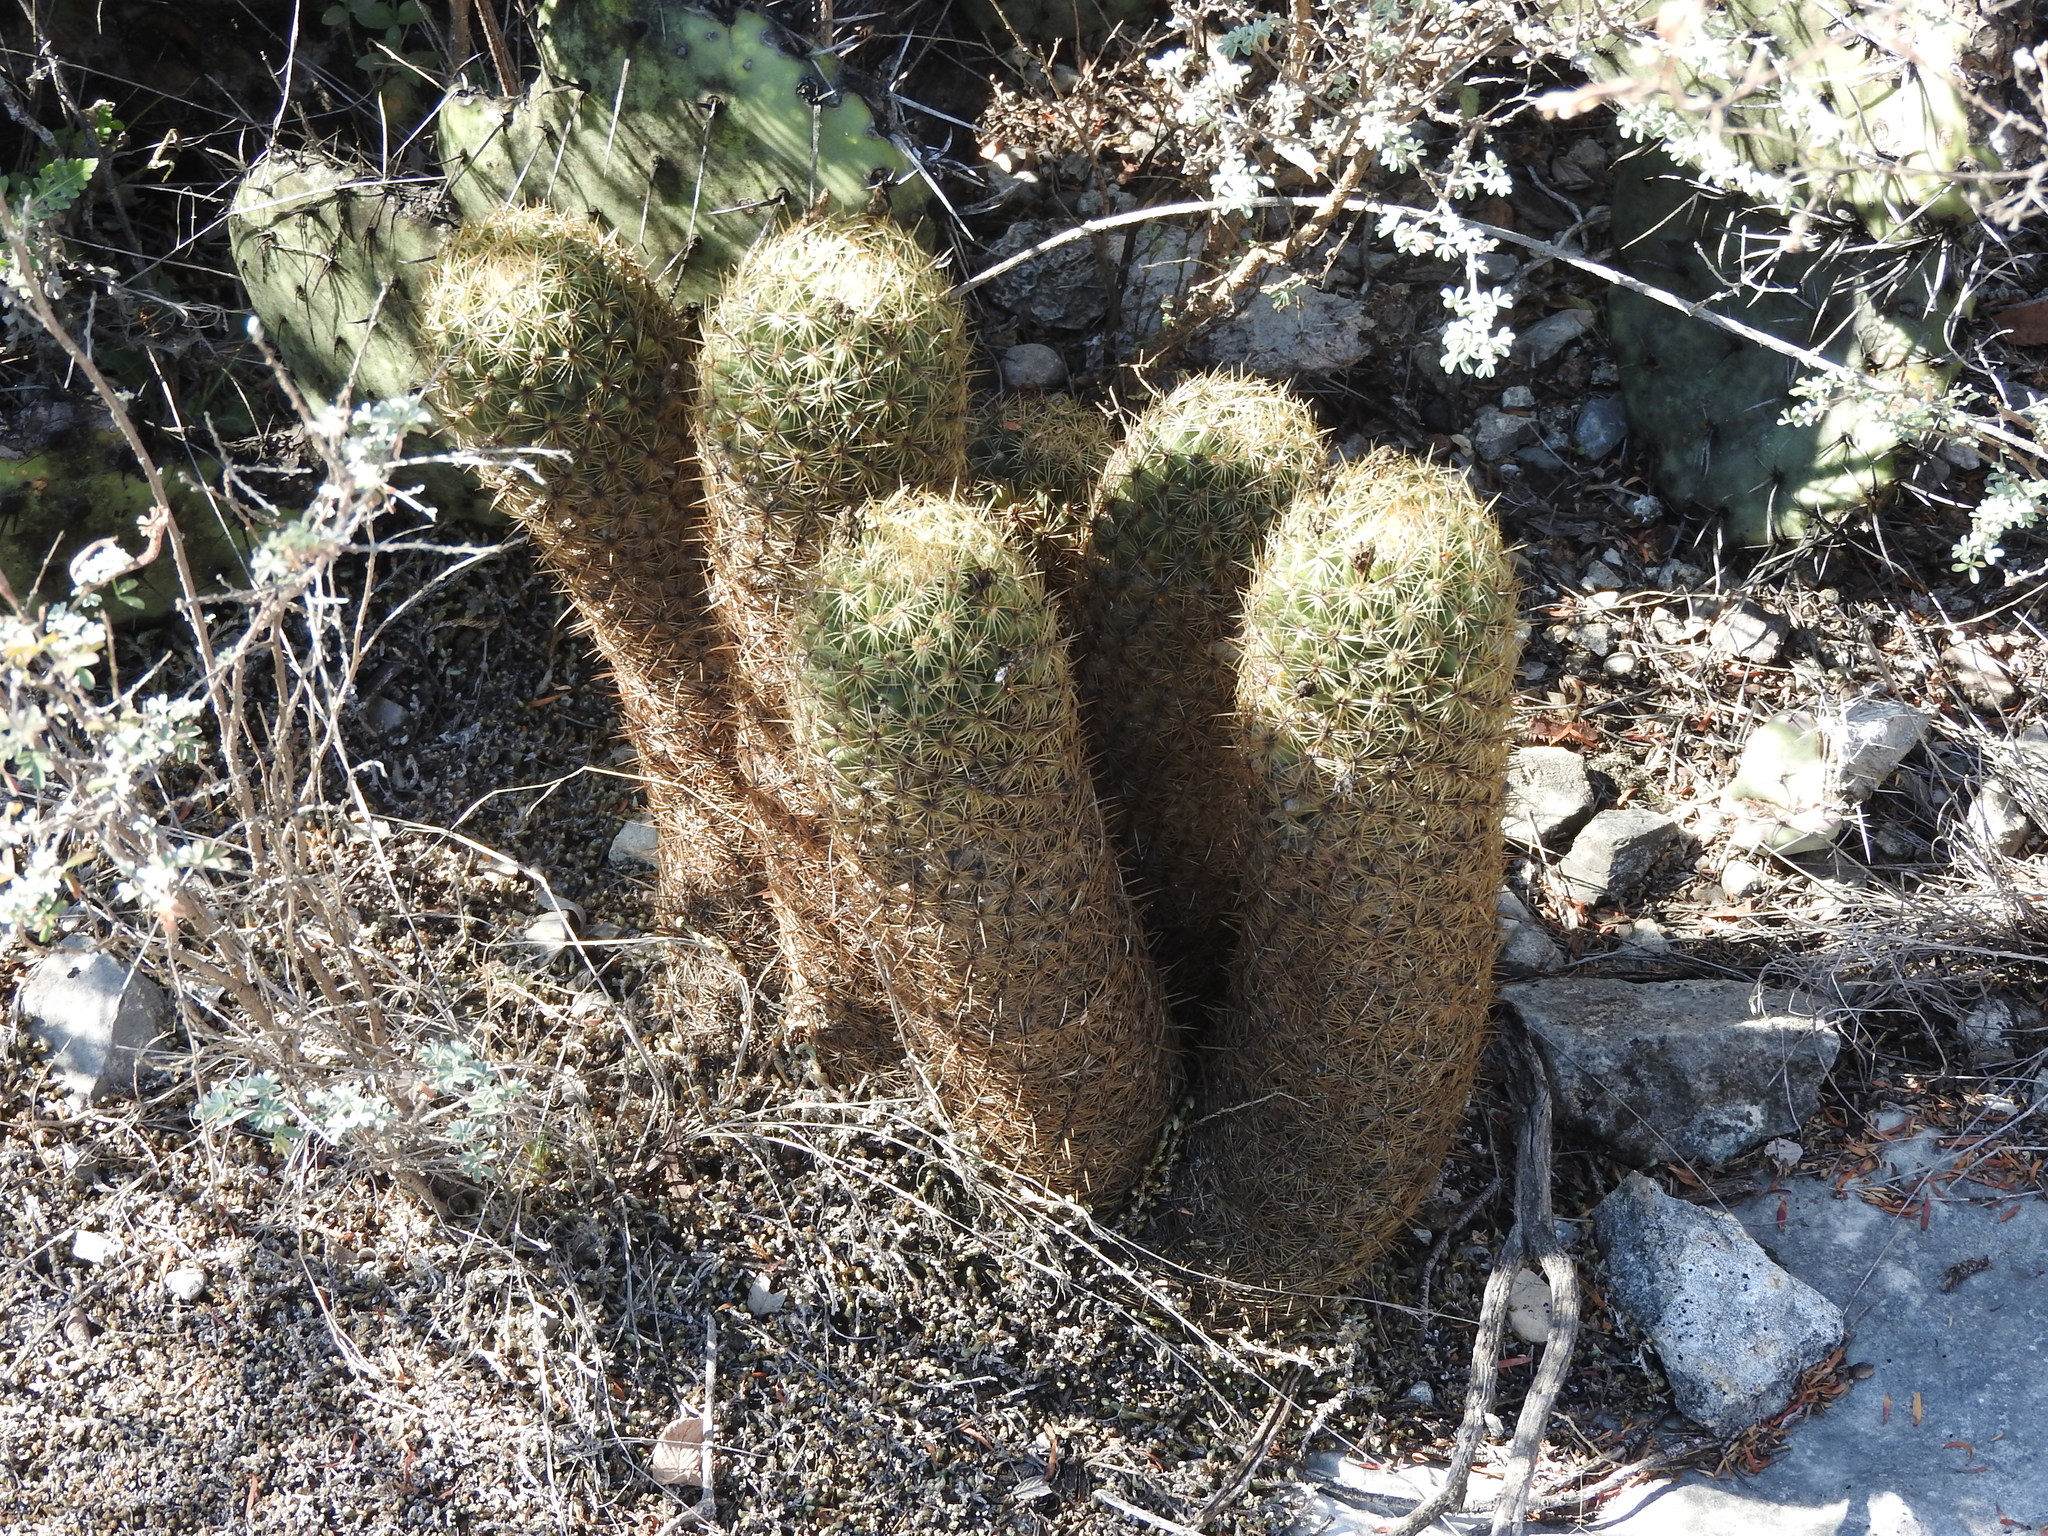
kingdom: Plantae
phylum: Tracheophyta
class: Magnoliopsida
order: Caryophyllales
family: Cactaceae
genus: Coryphantha
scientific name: Coryphantha erecta
